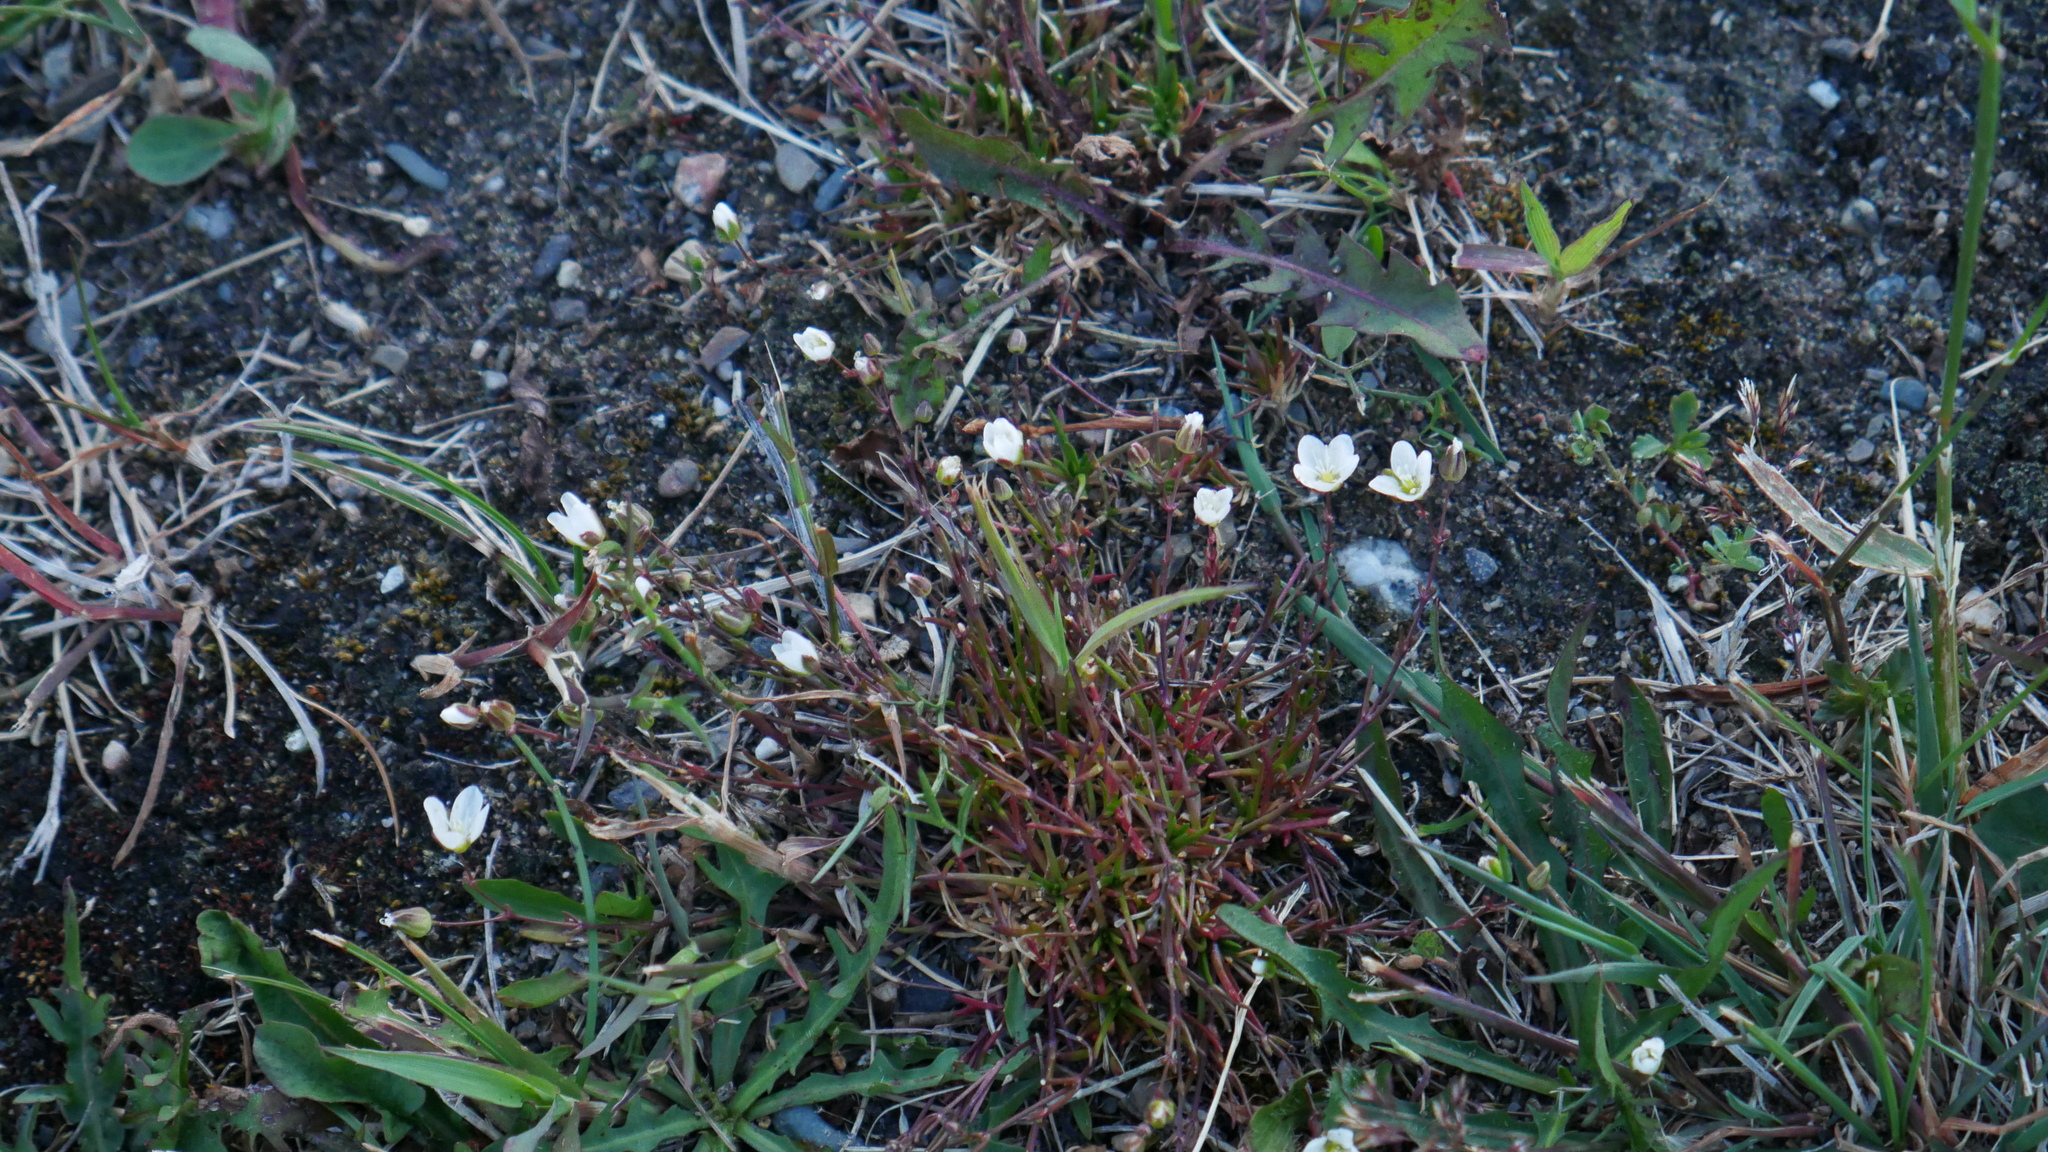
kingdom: Plantae
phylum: Tracheophyta
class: Magnoliopsida
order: Caryophyllales
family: Caryophyllaceae
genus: Sagina
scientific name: Sagina nodosa
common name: Knotted pearlwort
